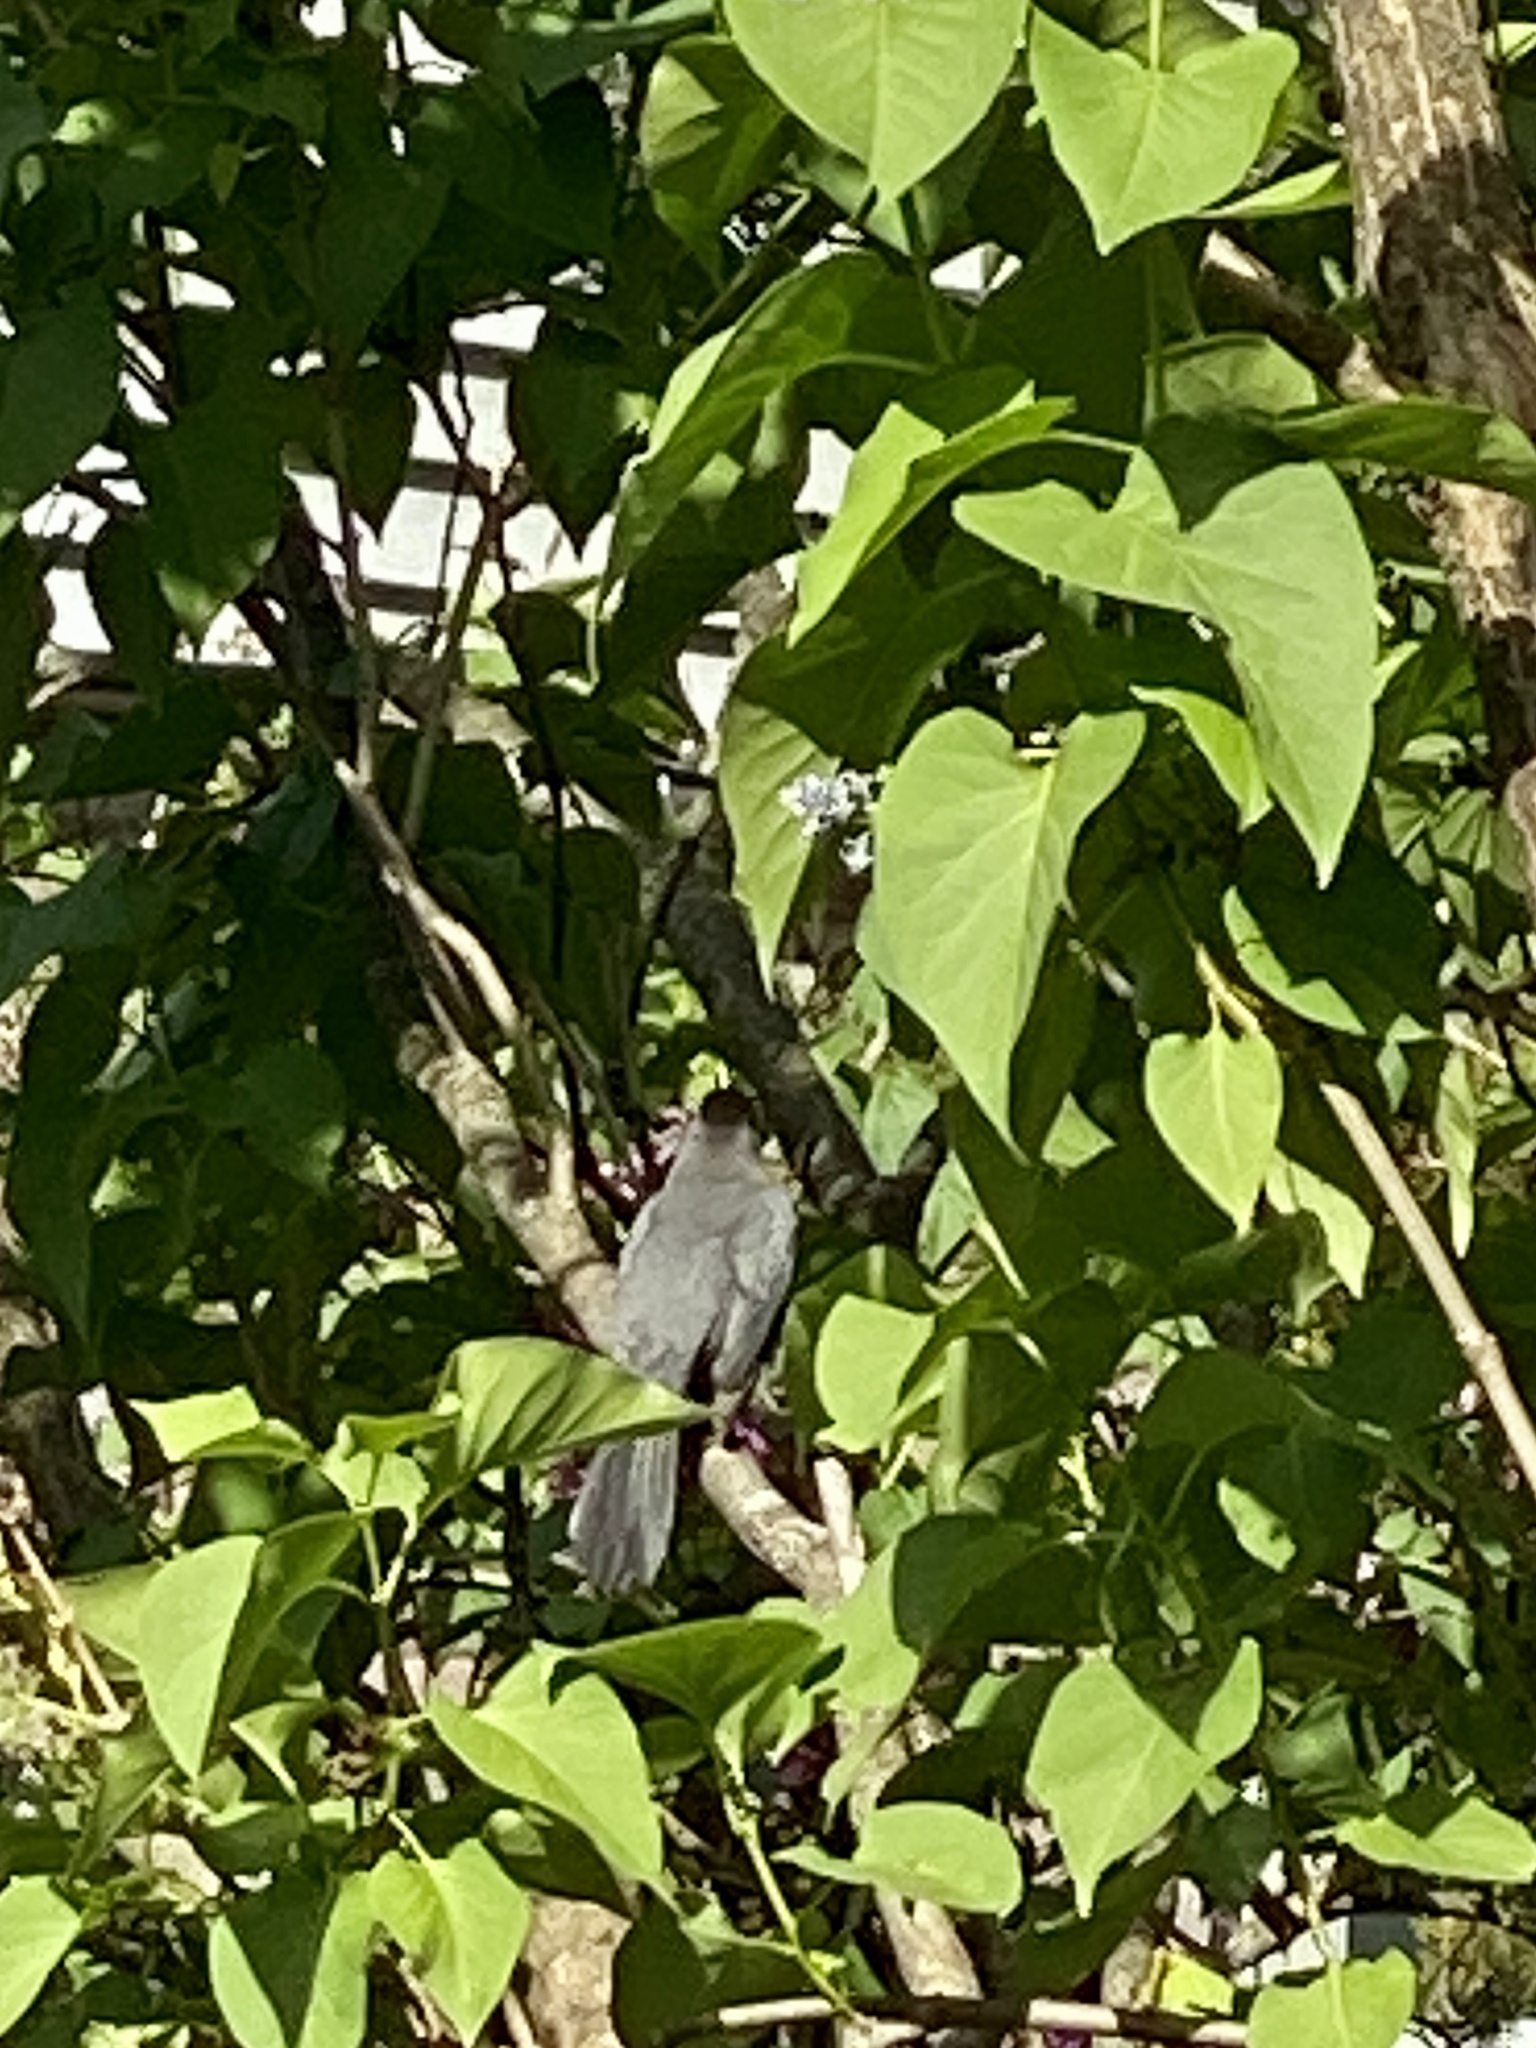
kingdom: Animalia
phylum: Chordata
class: Aves
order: Passeriformes
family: Mimidae
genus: Dumetella
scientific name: Dumetella carolinensis
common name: Gray catbird
